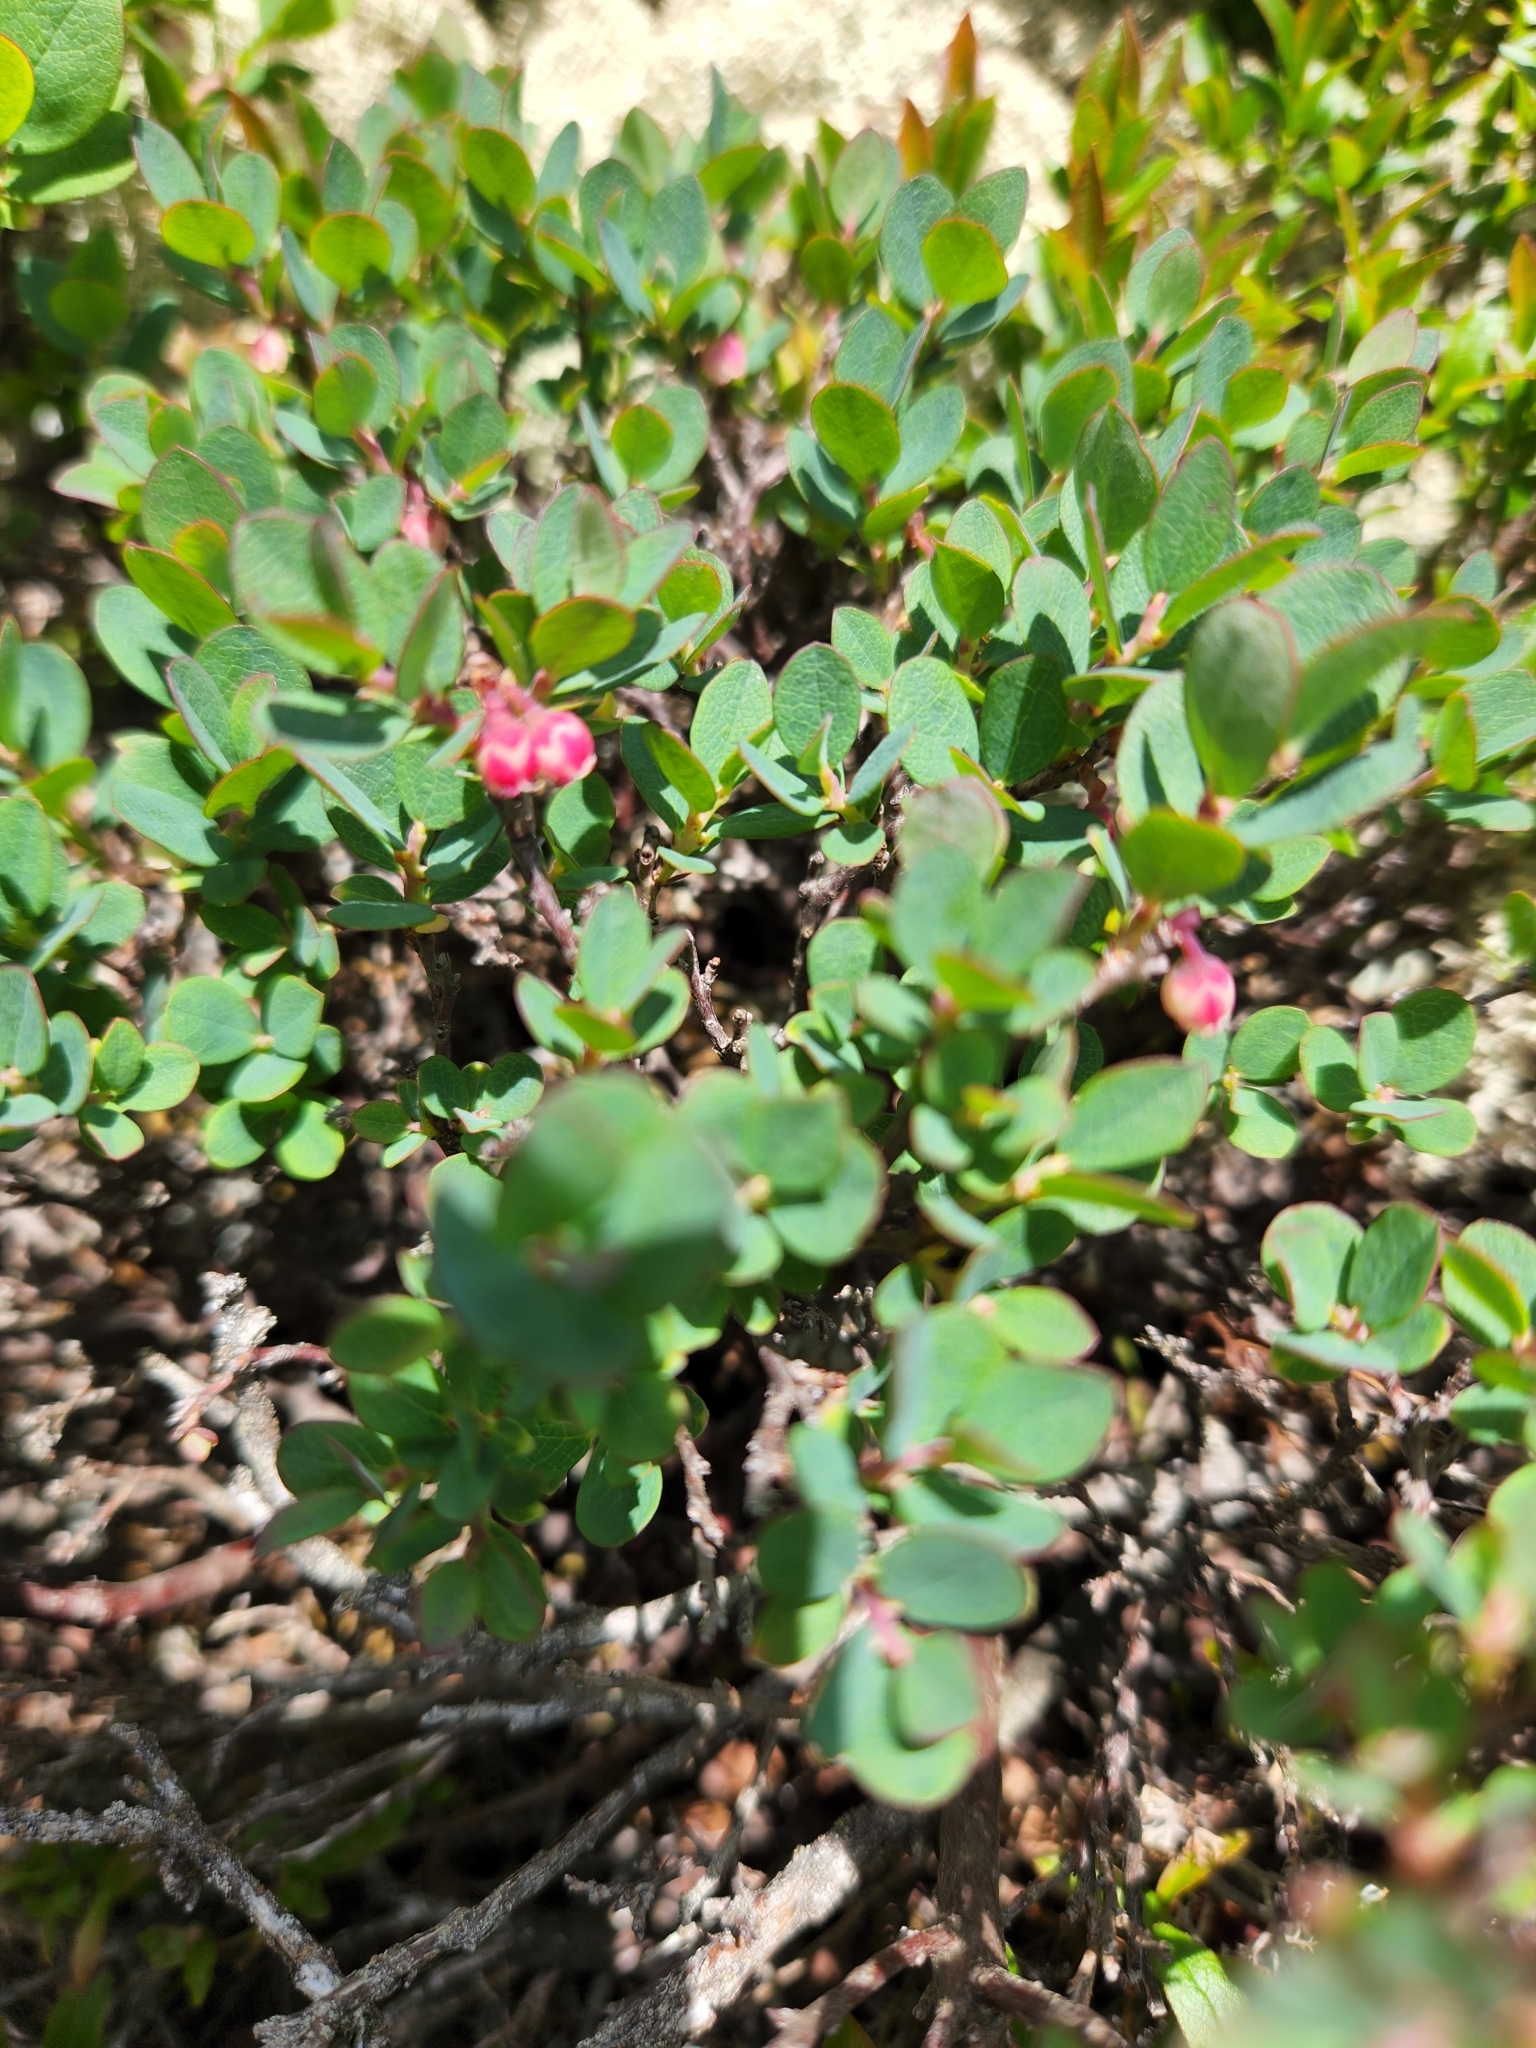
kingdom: Plantae
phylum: Tracheophyta
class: Magnoliopsida
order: Ericales
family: Ericaceae
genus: Vaccinium
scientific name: Vaccinium uliginosum
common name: Bog bilberry
